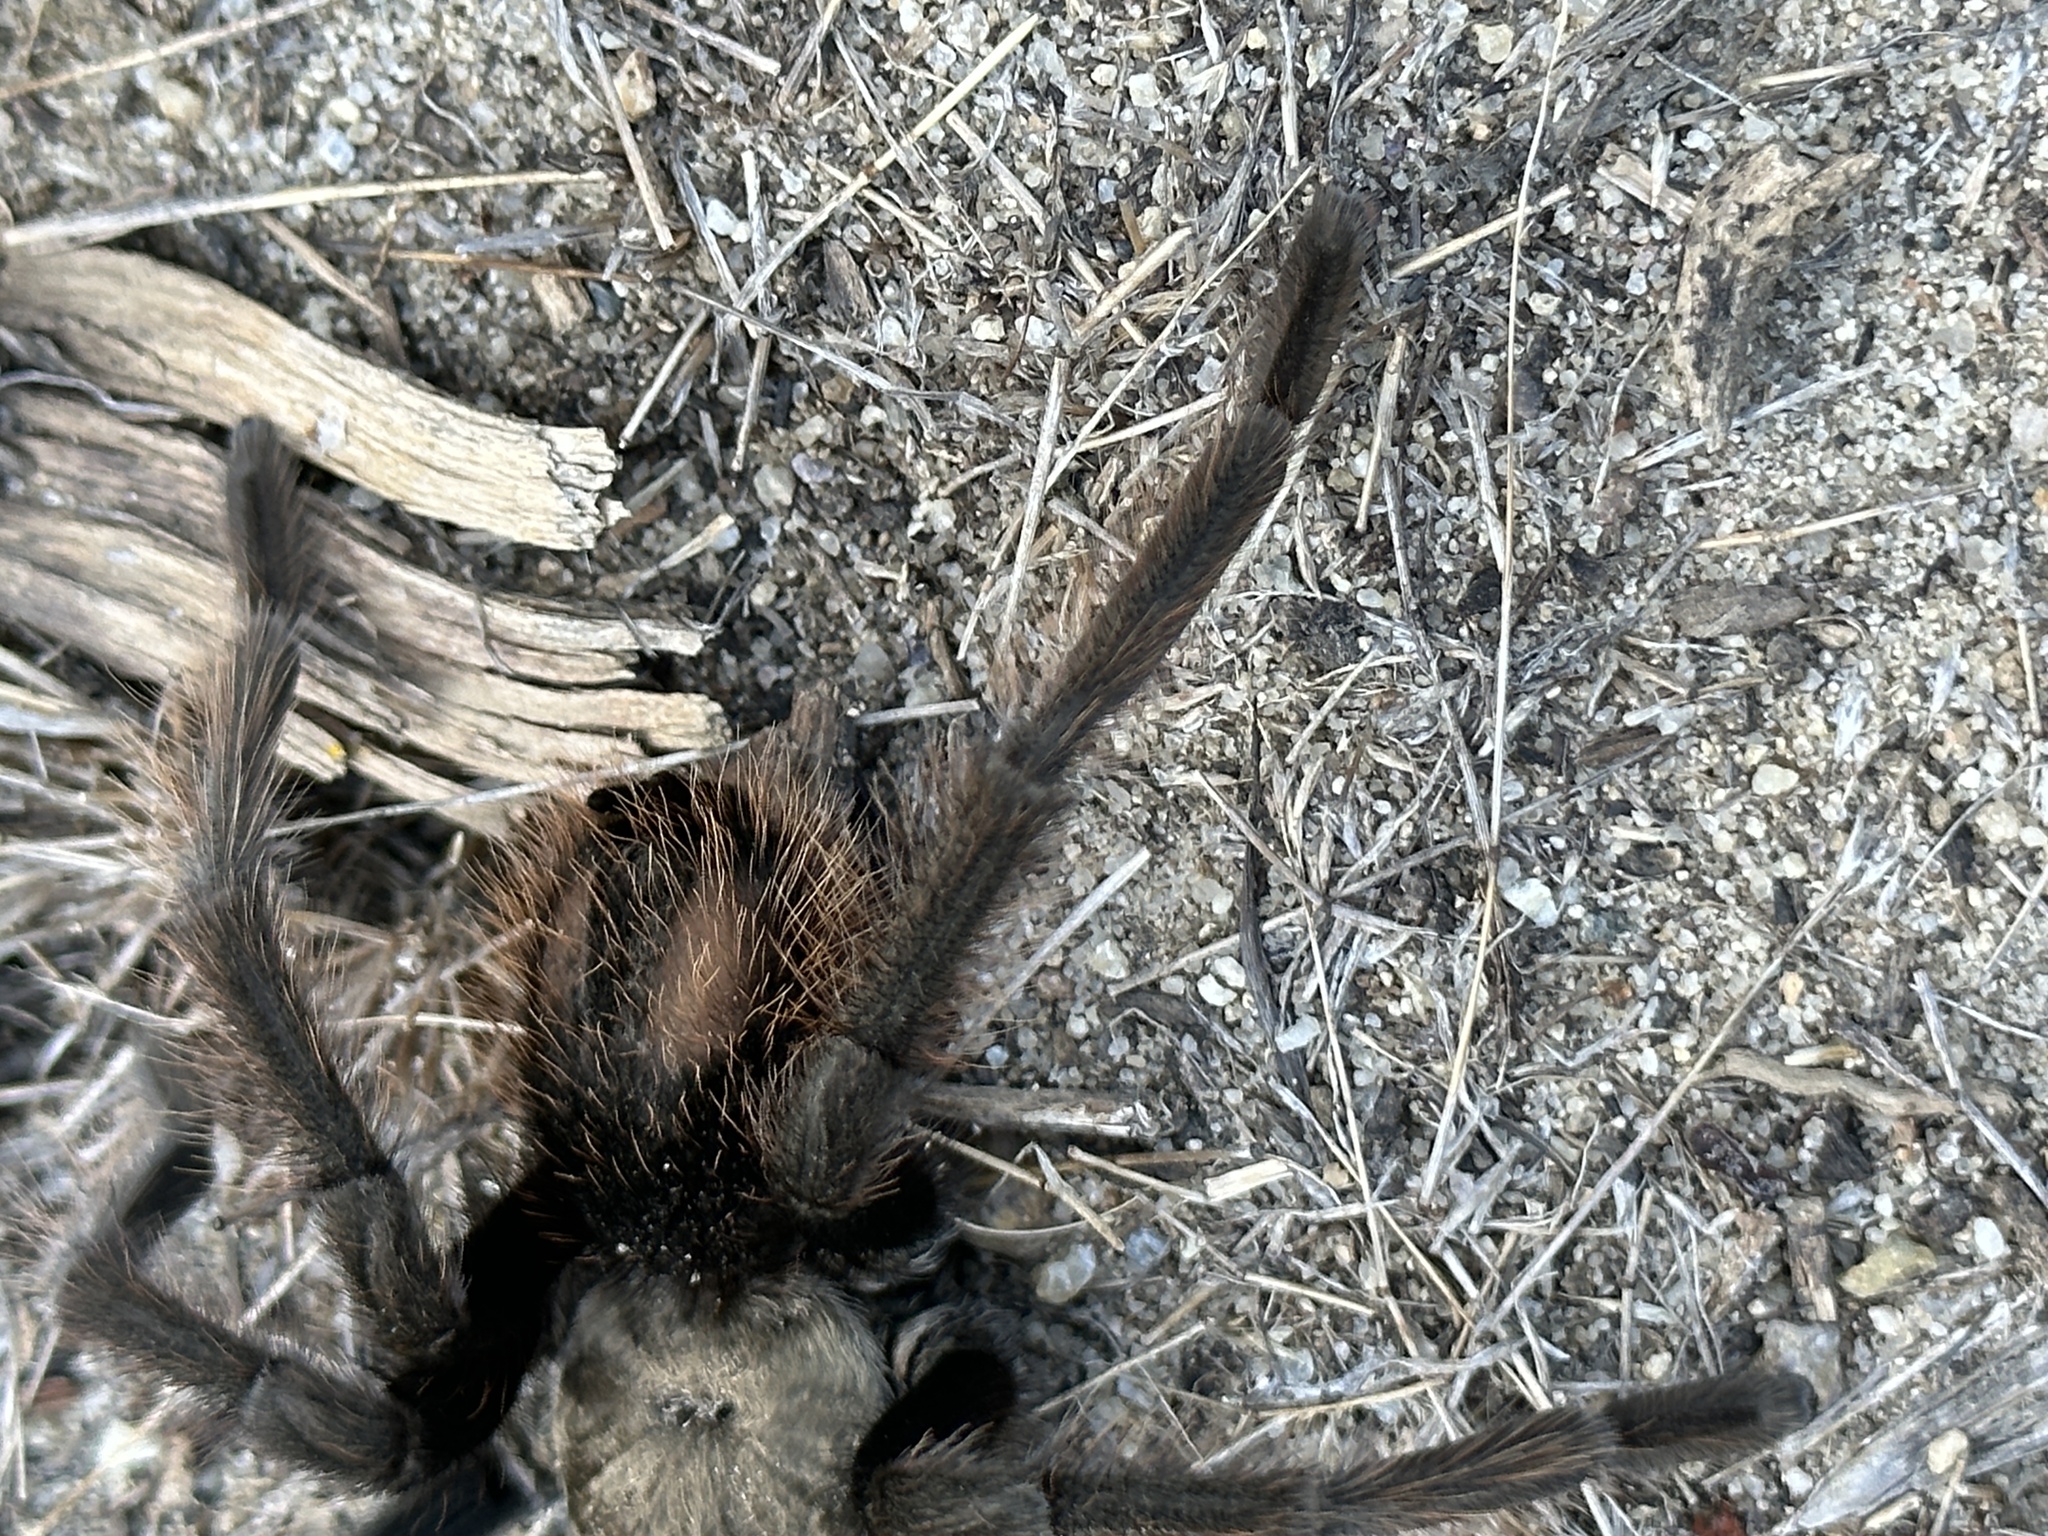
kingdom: Animalia
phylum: Arthropoda
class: Arachnida
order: Araneae
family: Theraphosidae
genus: Aphonopelma
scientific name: Aphonopelma eutylenum
